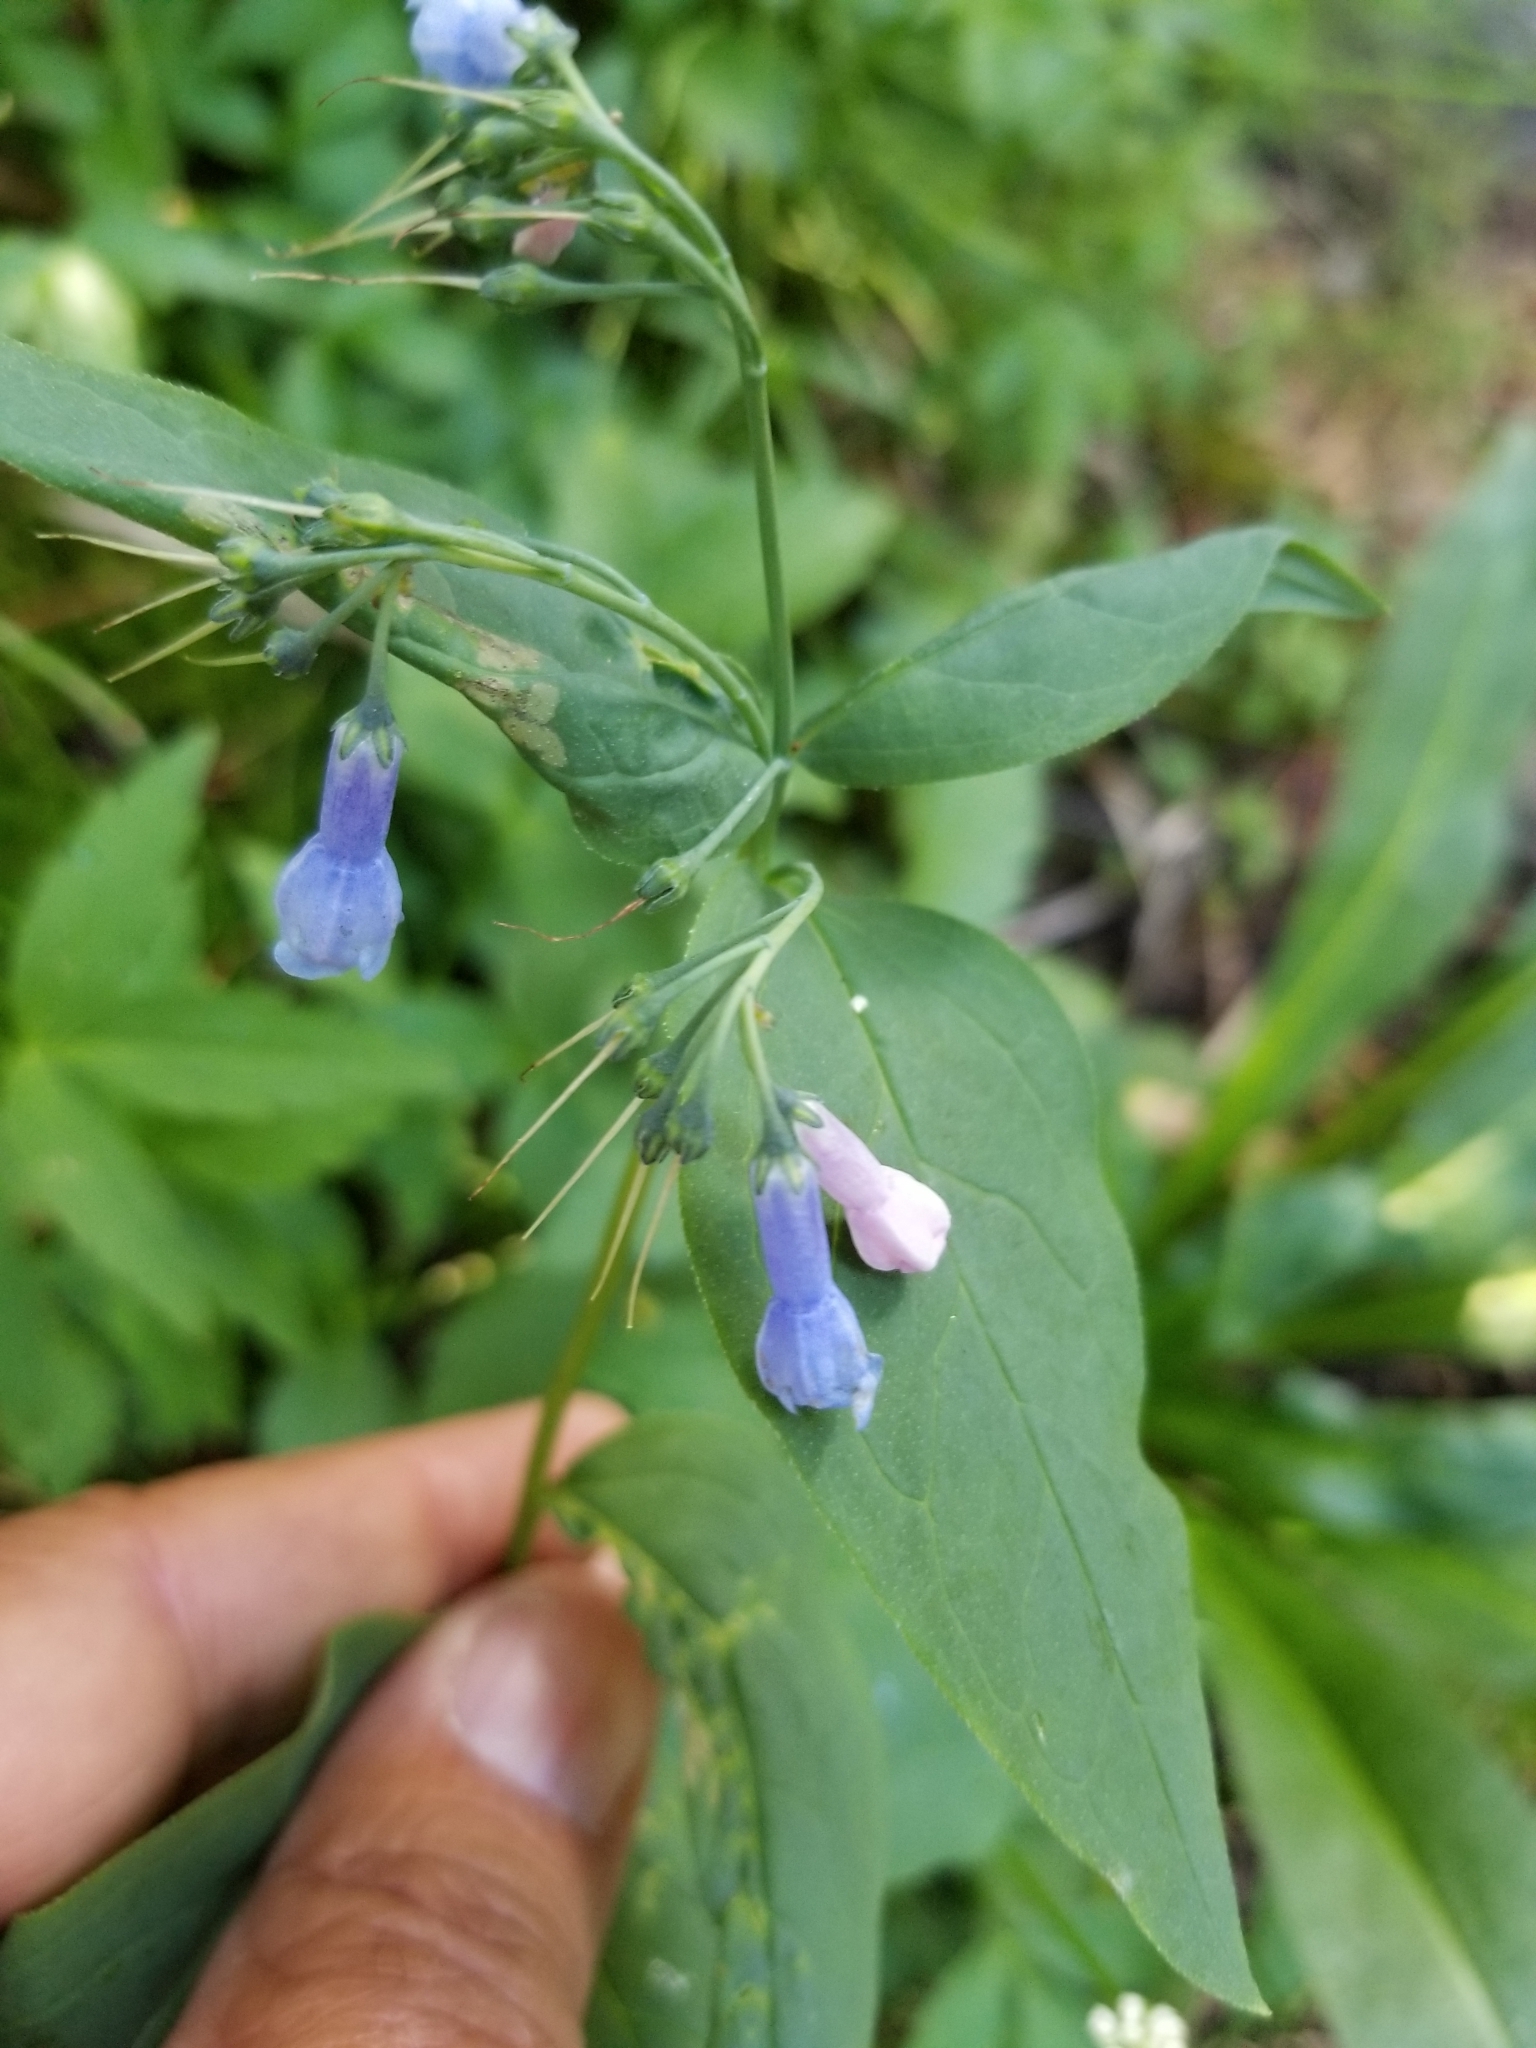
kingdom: Plantae
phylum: Tracheophyta
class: Magnoliopsida
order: Boraginales
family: Boraginaceae
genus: Mertensia
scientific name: Mertensia ciliata
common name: Tall chiming-bells
